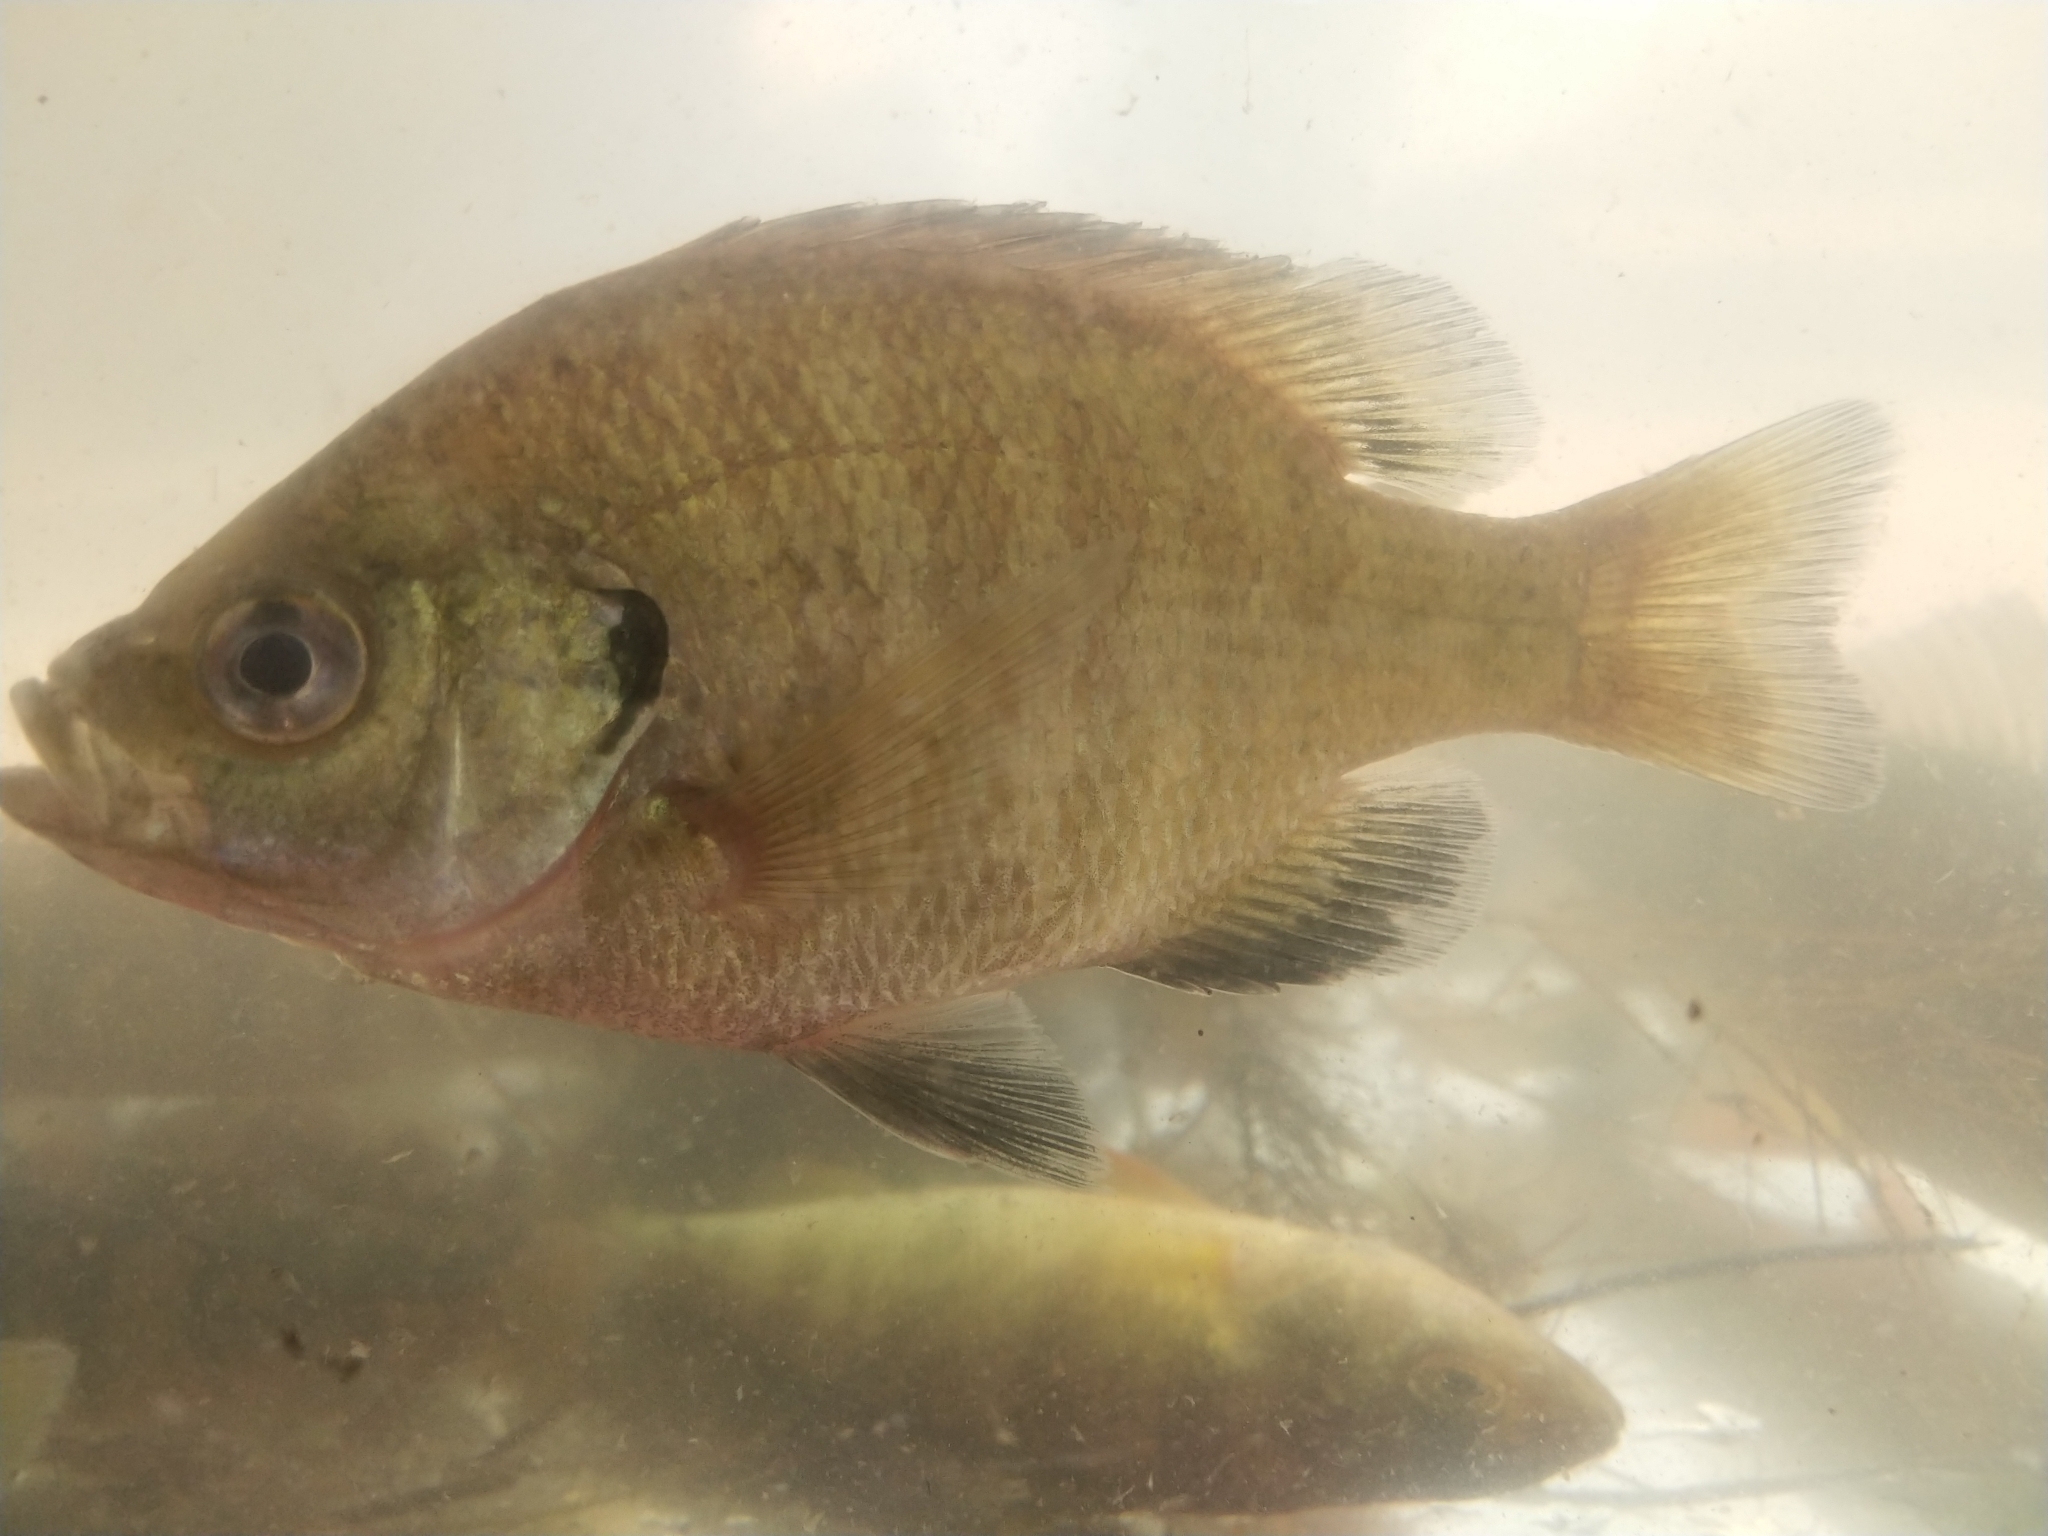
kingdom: Animalia
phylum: Chordata
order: Perciformes
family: Centrarchidae
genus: Lepomis
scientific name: Lepomis macrochirus
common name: Bluegill
